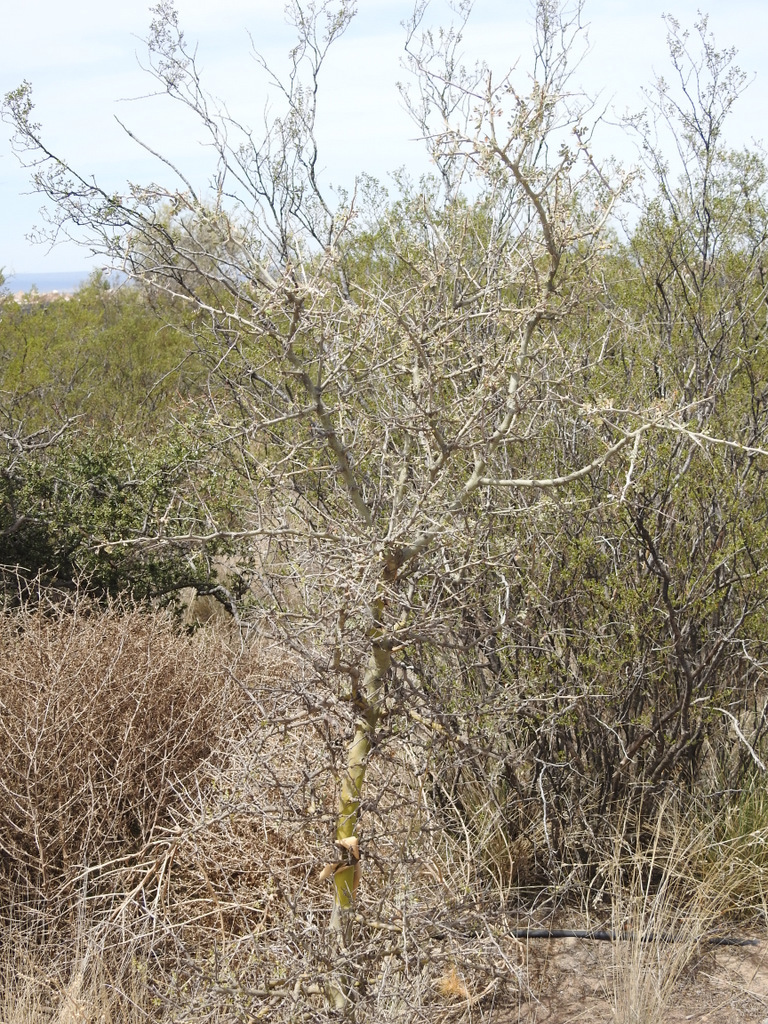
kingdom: Plantae
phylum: Tracheophyta
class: Magnoliopsida
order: Fabales
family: Fabaceae
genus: Geoffroea
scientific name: Geoffroea decorticans
